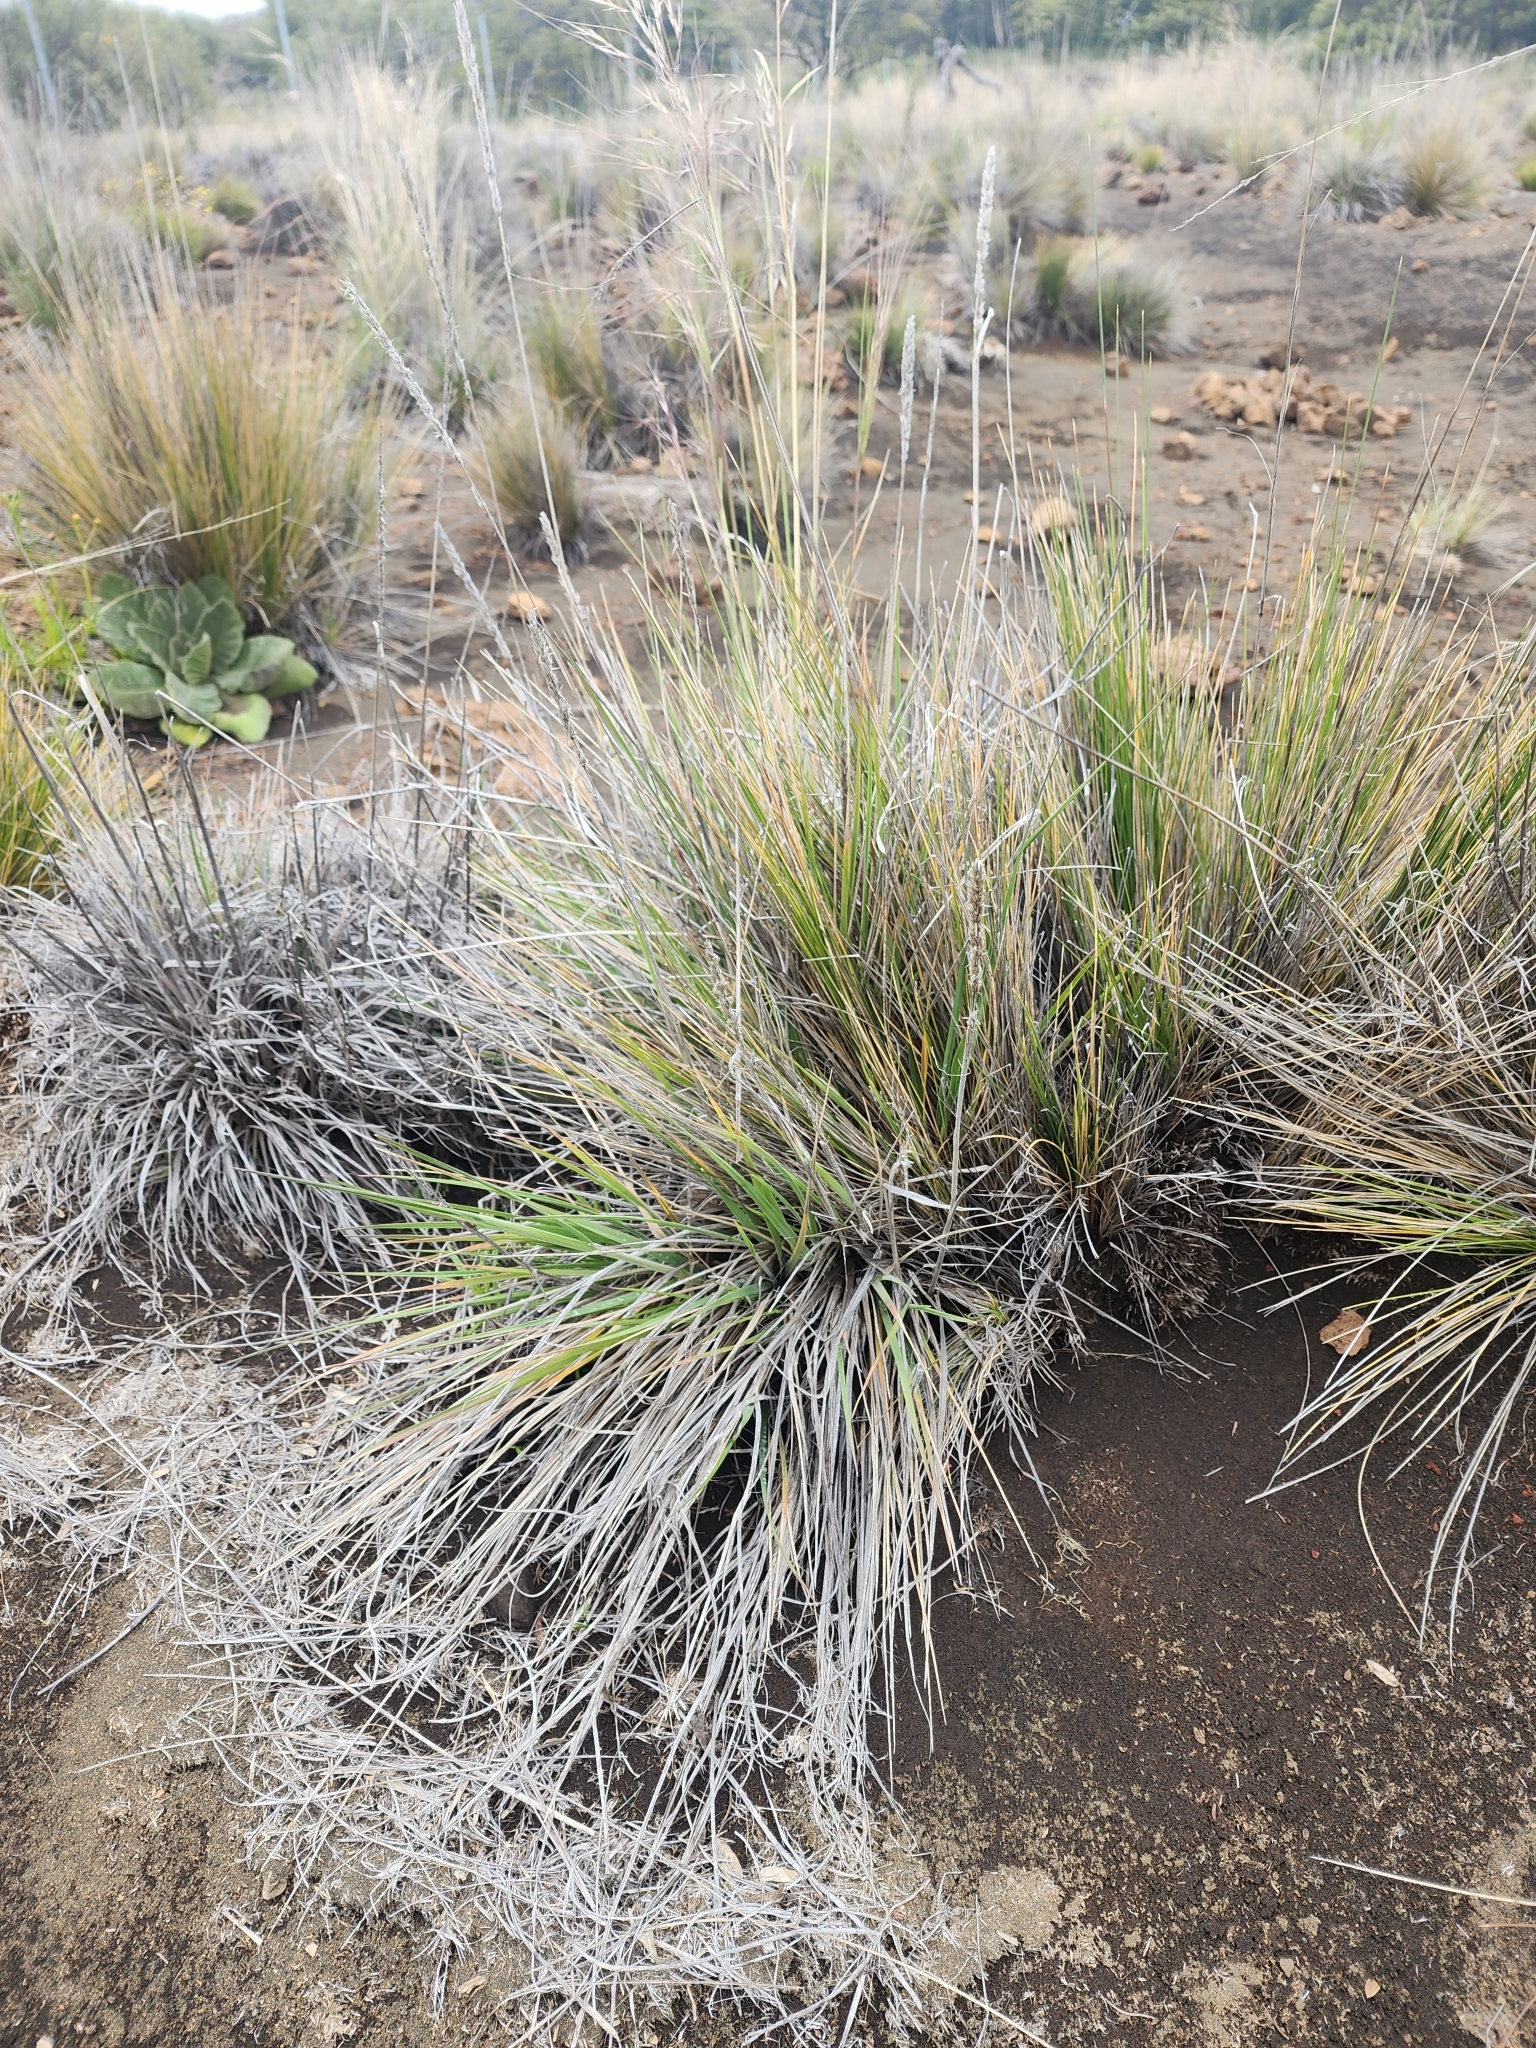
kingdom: Plantae
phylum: Tracheophyta
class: Liliopsida
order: Poales
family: Poaceae
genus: Nassella
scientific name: Nassella cernua
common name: Nodding needlegrass
